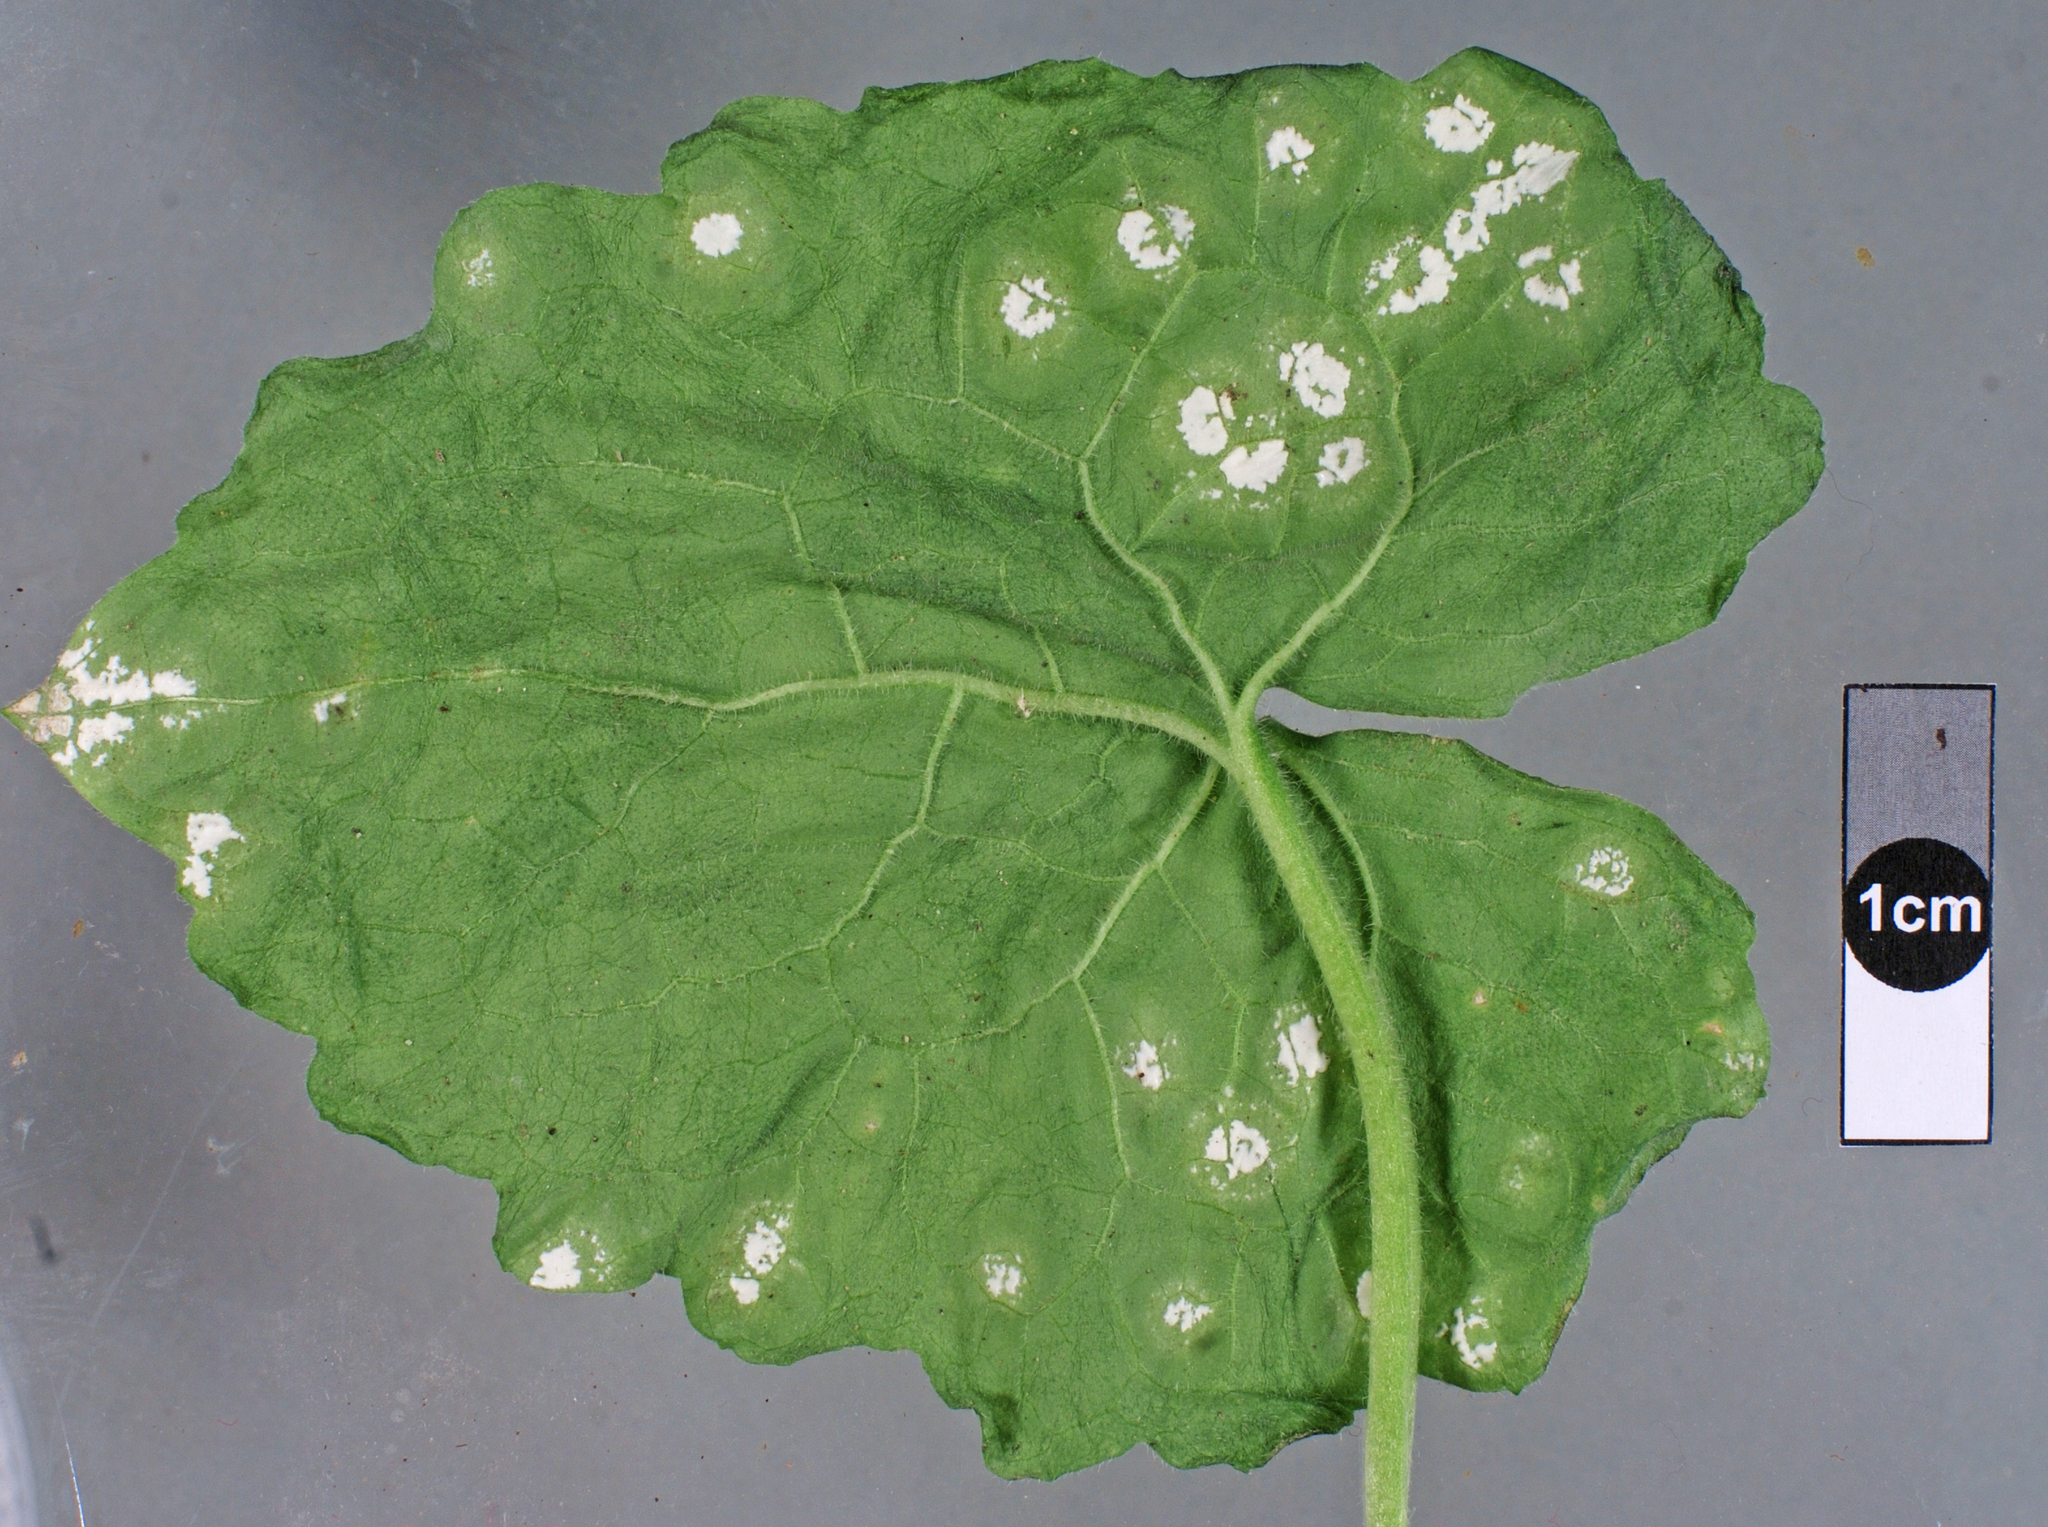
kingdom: Chromista
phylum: Oomycota
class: Peronosporea
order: Albuginales
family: Albuginaceae
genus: Albugo
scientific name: Albugo candida
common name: Crucifer white blister
